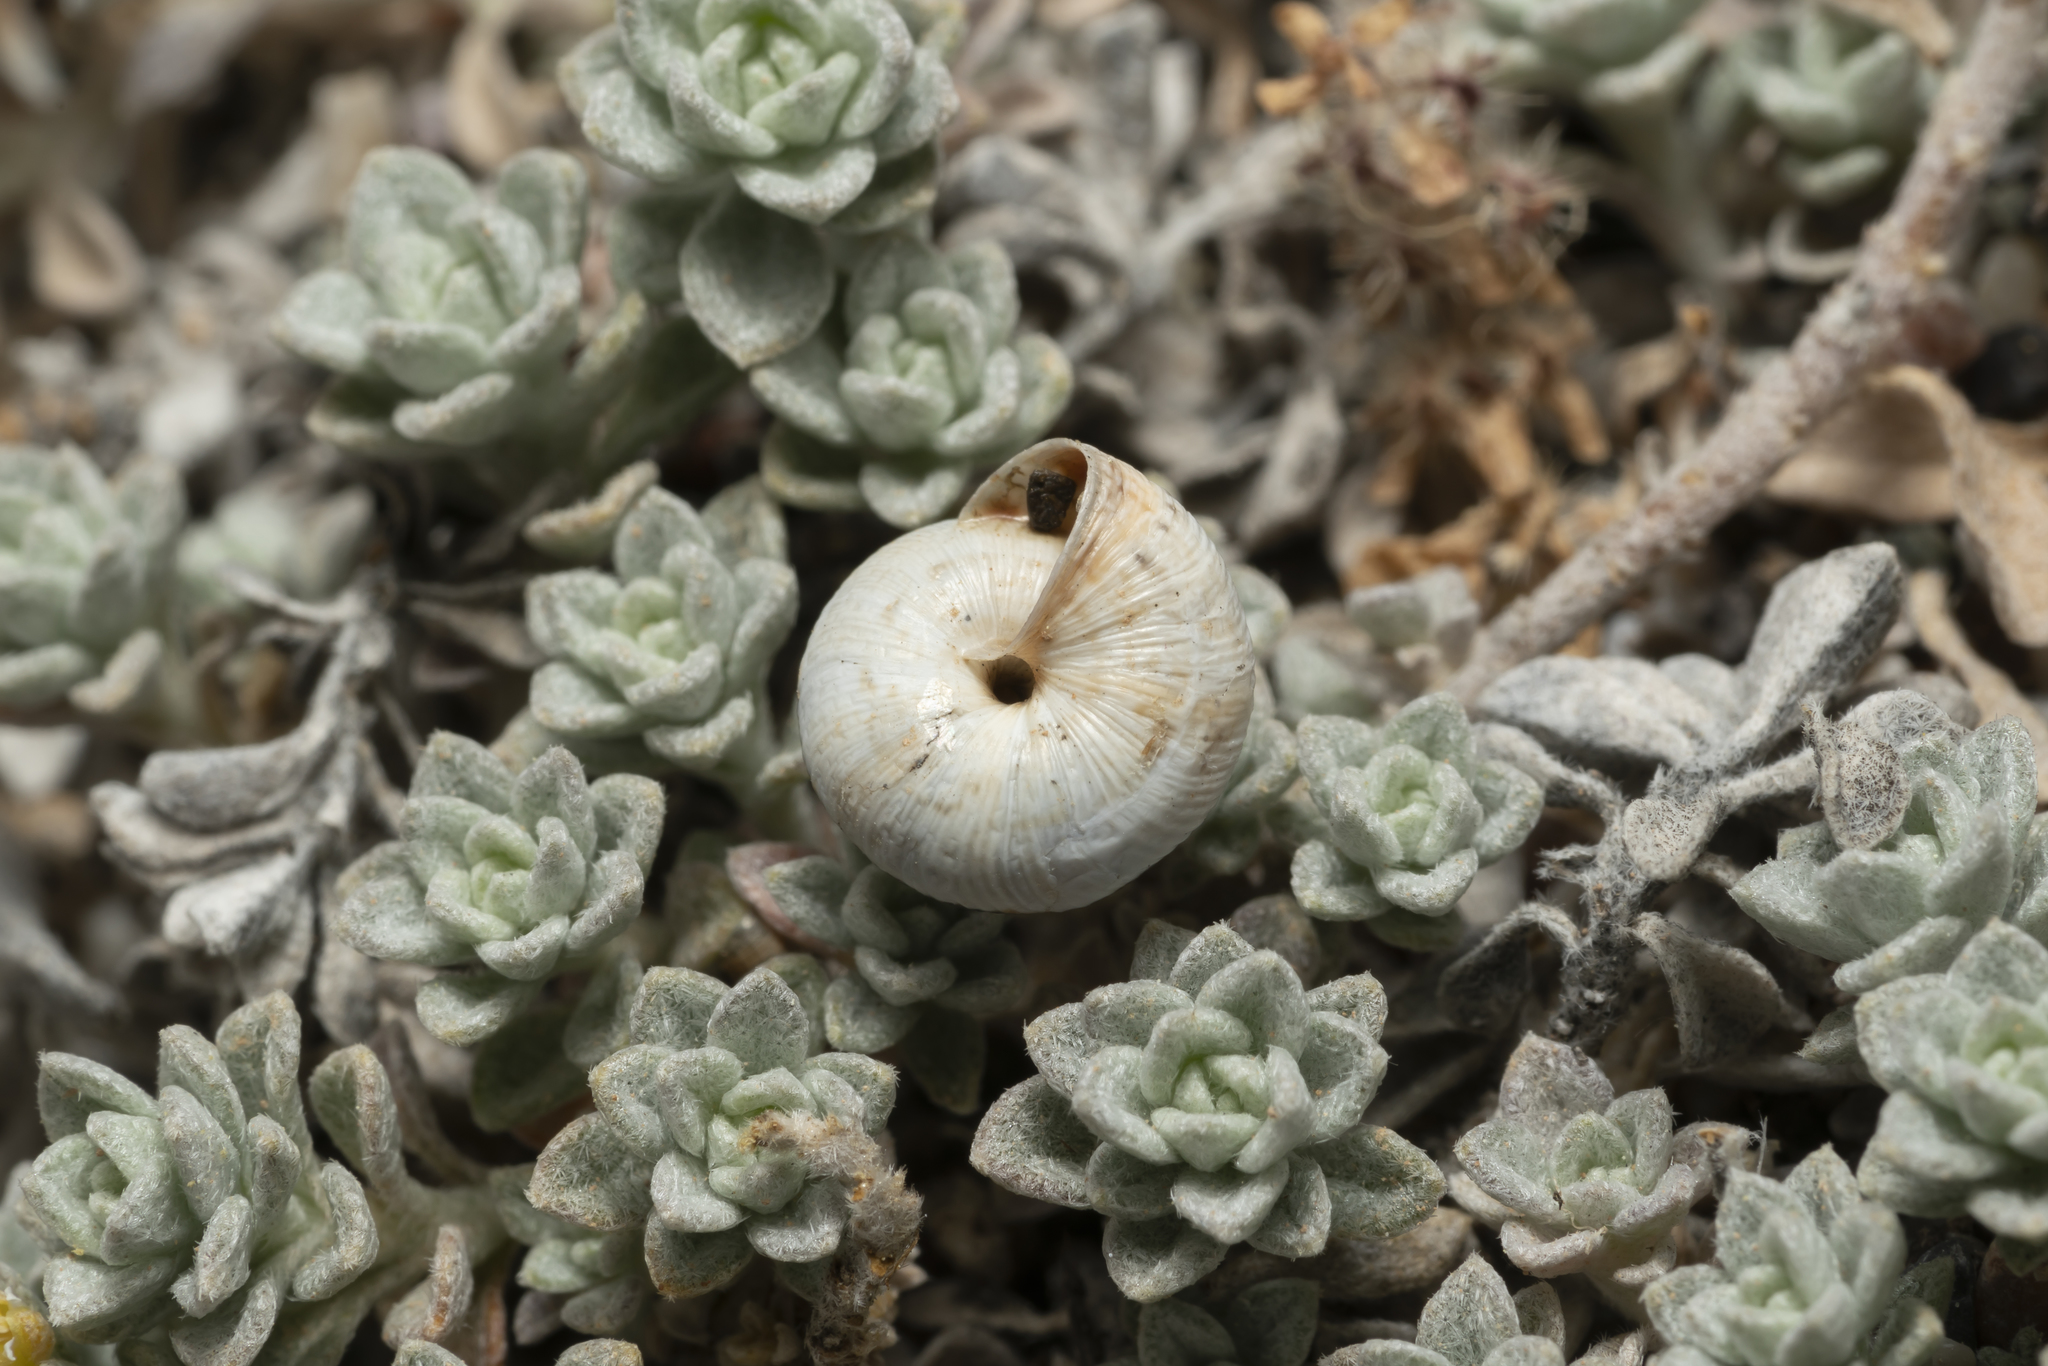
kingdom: Animalia
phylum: Mollusca
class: Gastropoda
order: Stylommatophora
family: Geomitridae
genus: Trochoidea
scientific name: Trochoidea pyramidata
